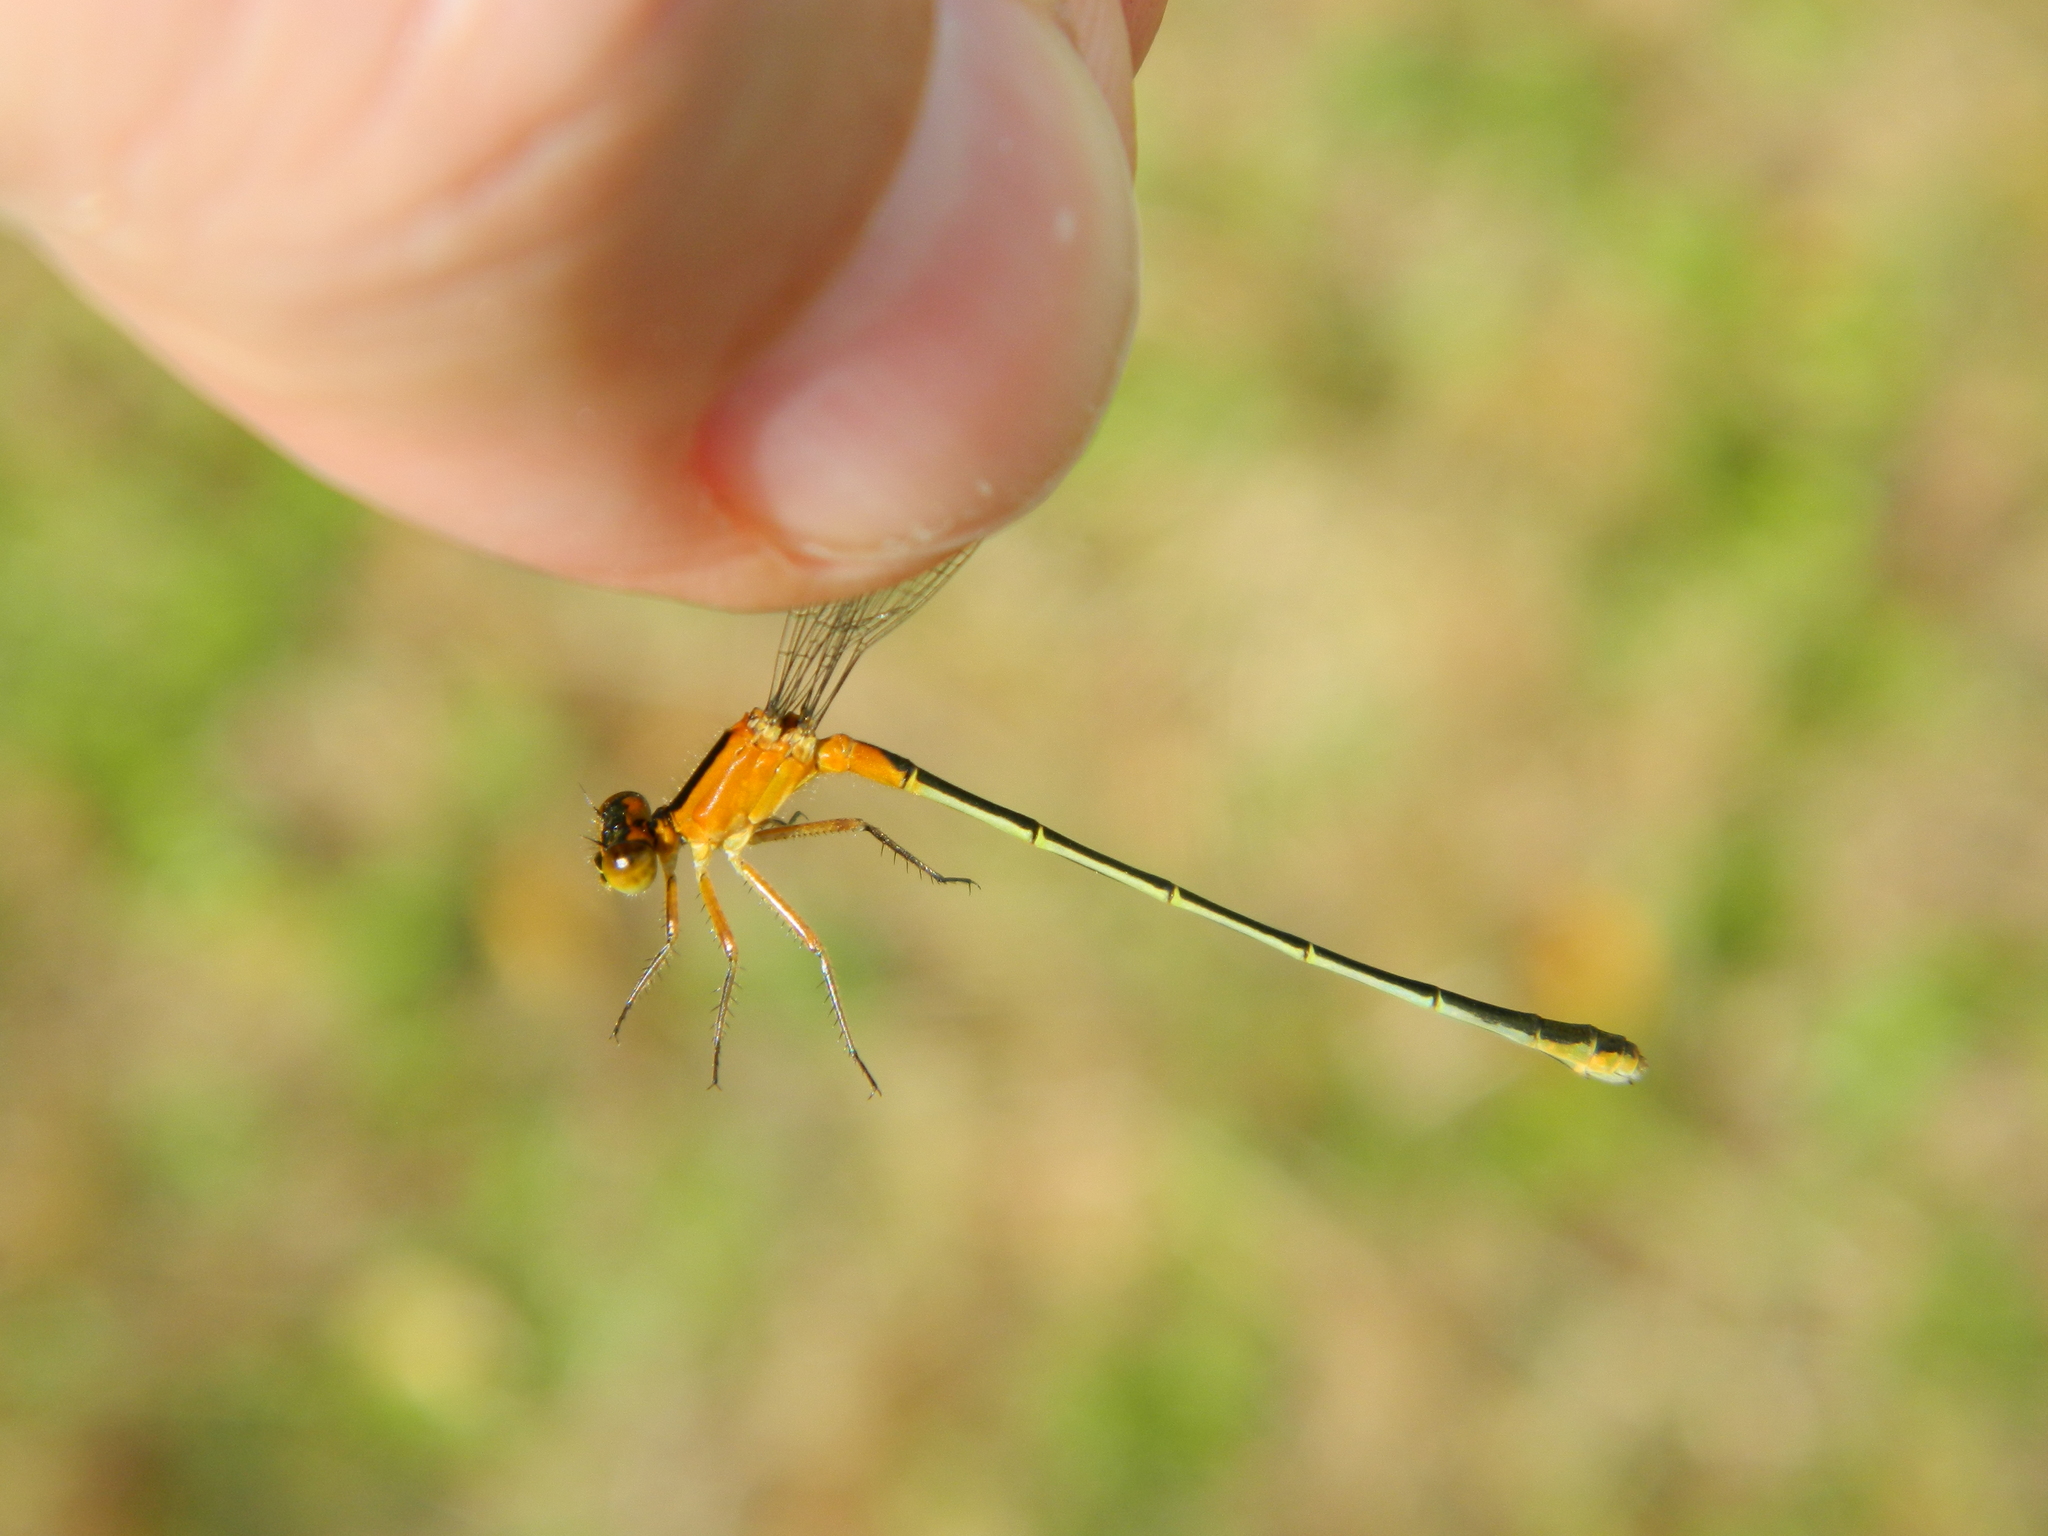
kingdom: Animalia
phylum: Arthropoda
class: Insecta
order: Odonata
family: Coenagrionidae
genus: Ischnura
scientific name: Ischnura ramburii
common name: Rambur's forktail
